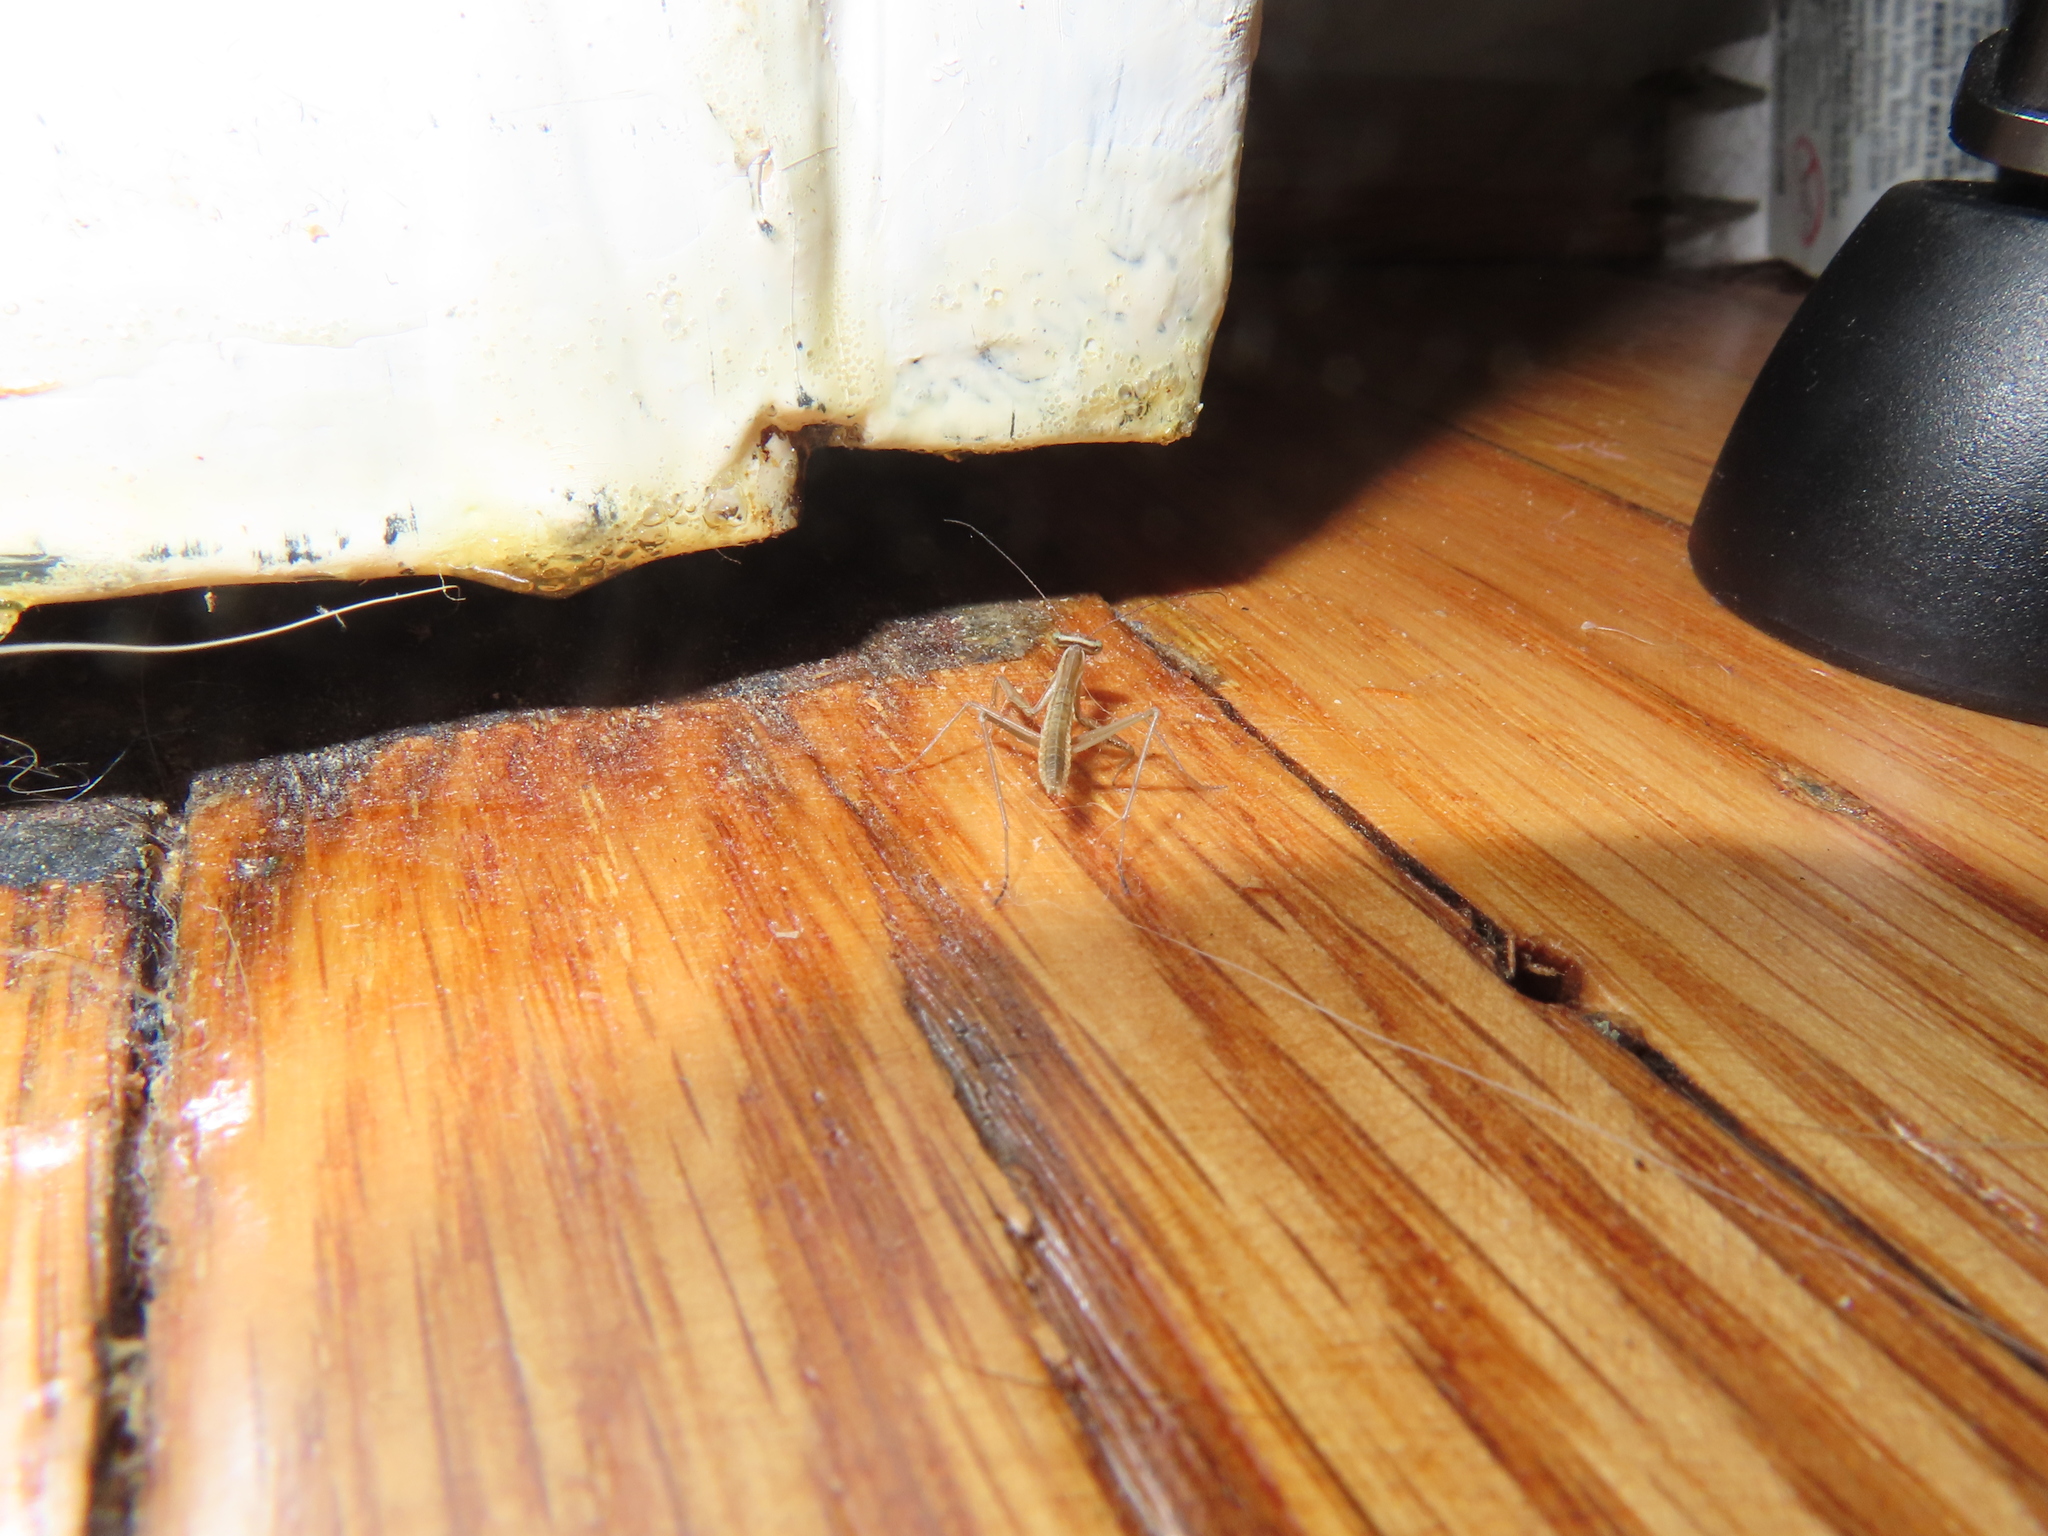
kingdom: Animalia
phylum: Arthropoda
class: Insecta
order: Mantodea
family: Mantidae
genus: Tenodera
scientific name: Tenodera sinensis
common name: Chinese mantis
